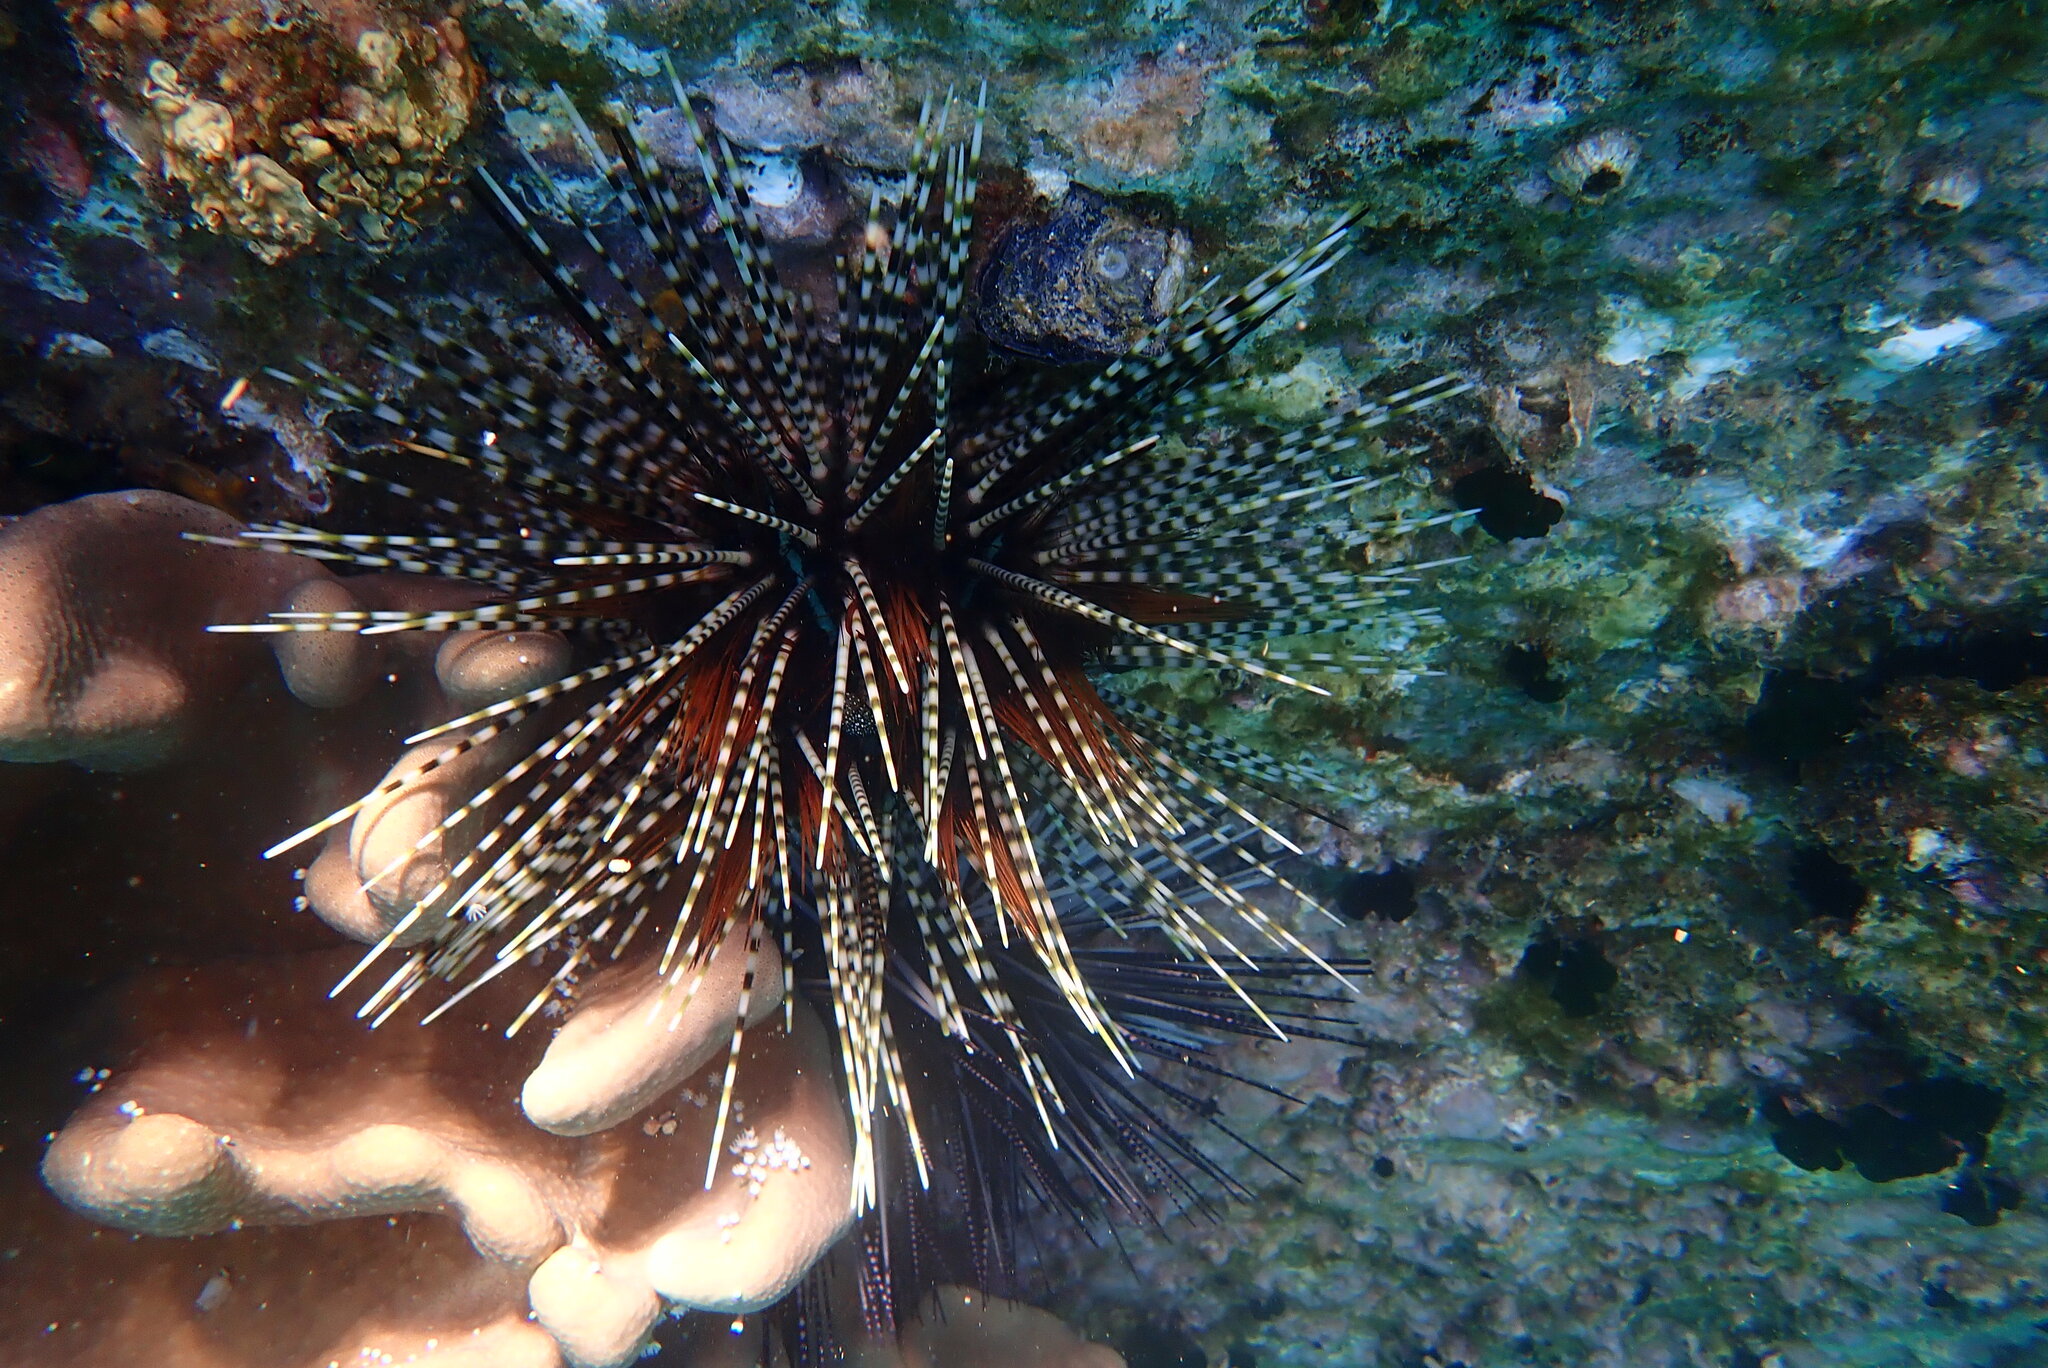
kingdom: Animalia
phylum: Echinodermata
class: Echinoidea
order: Diadematoida
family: Diadematidae
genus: Echinothrix
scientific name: Echinothrix calamaris
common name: Banded sea urchin
